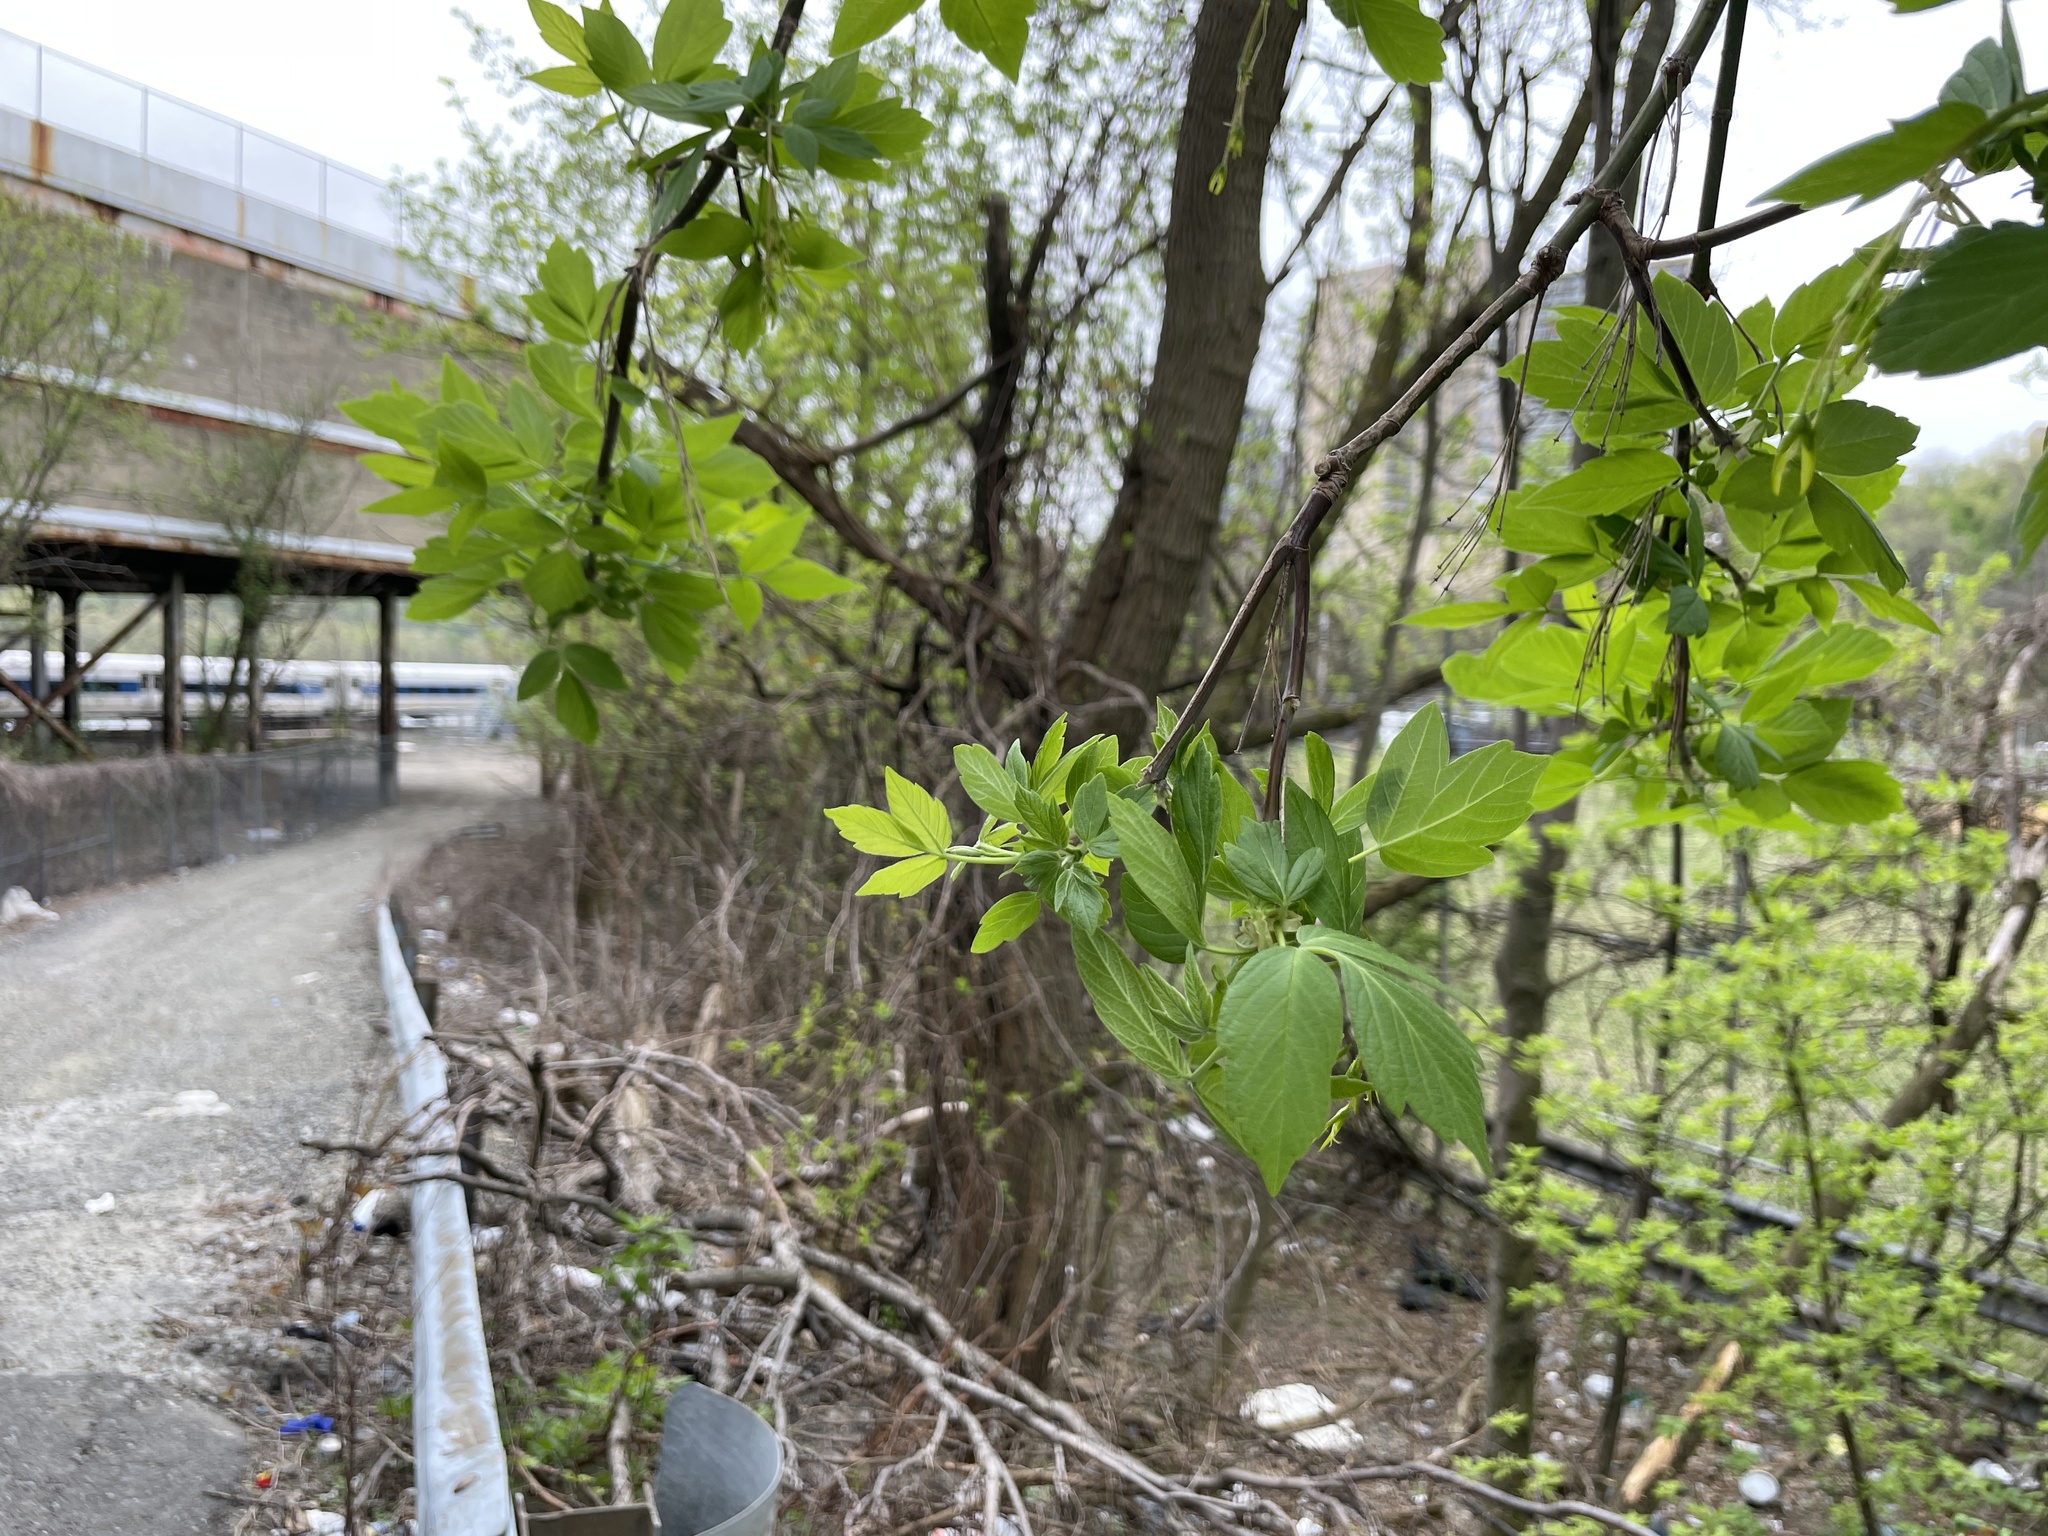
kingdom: Plantae
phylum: Tracheophyta
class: Magnoliopsida
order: Sapindales
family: Sapindaceae
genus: Acer
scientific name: Acer negundo
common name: Ashleaf maple
